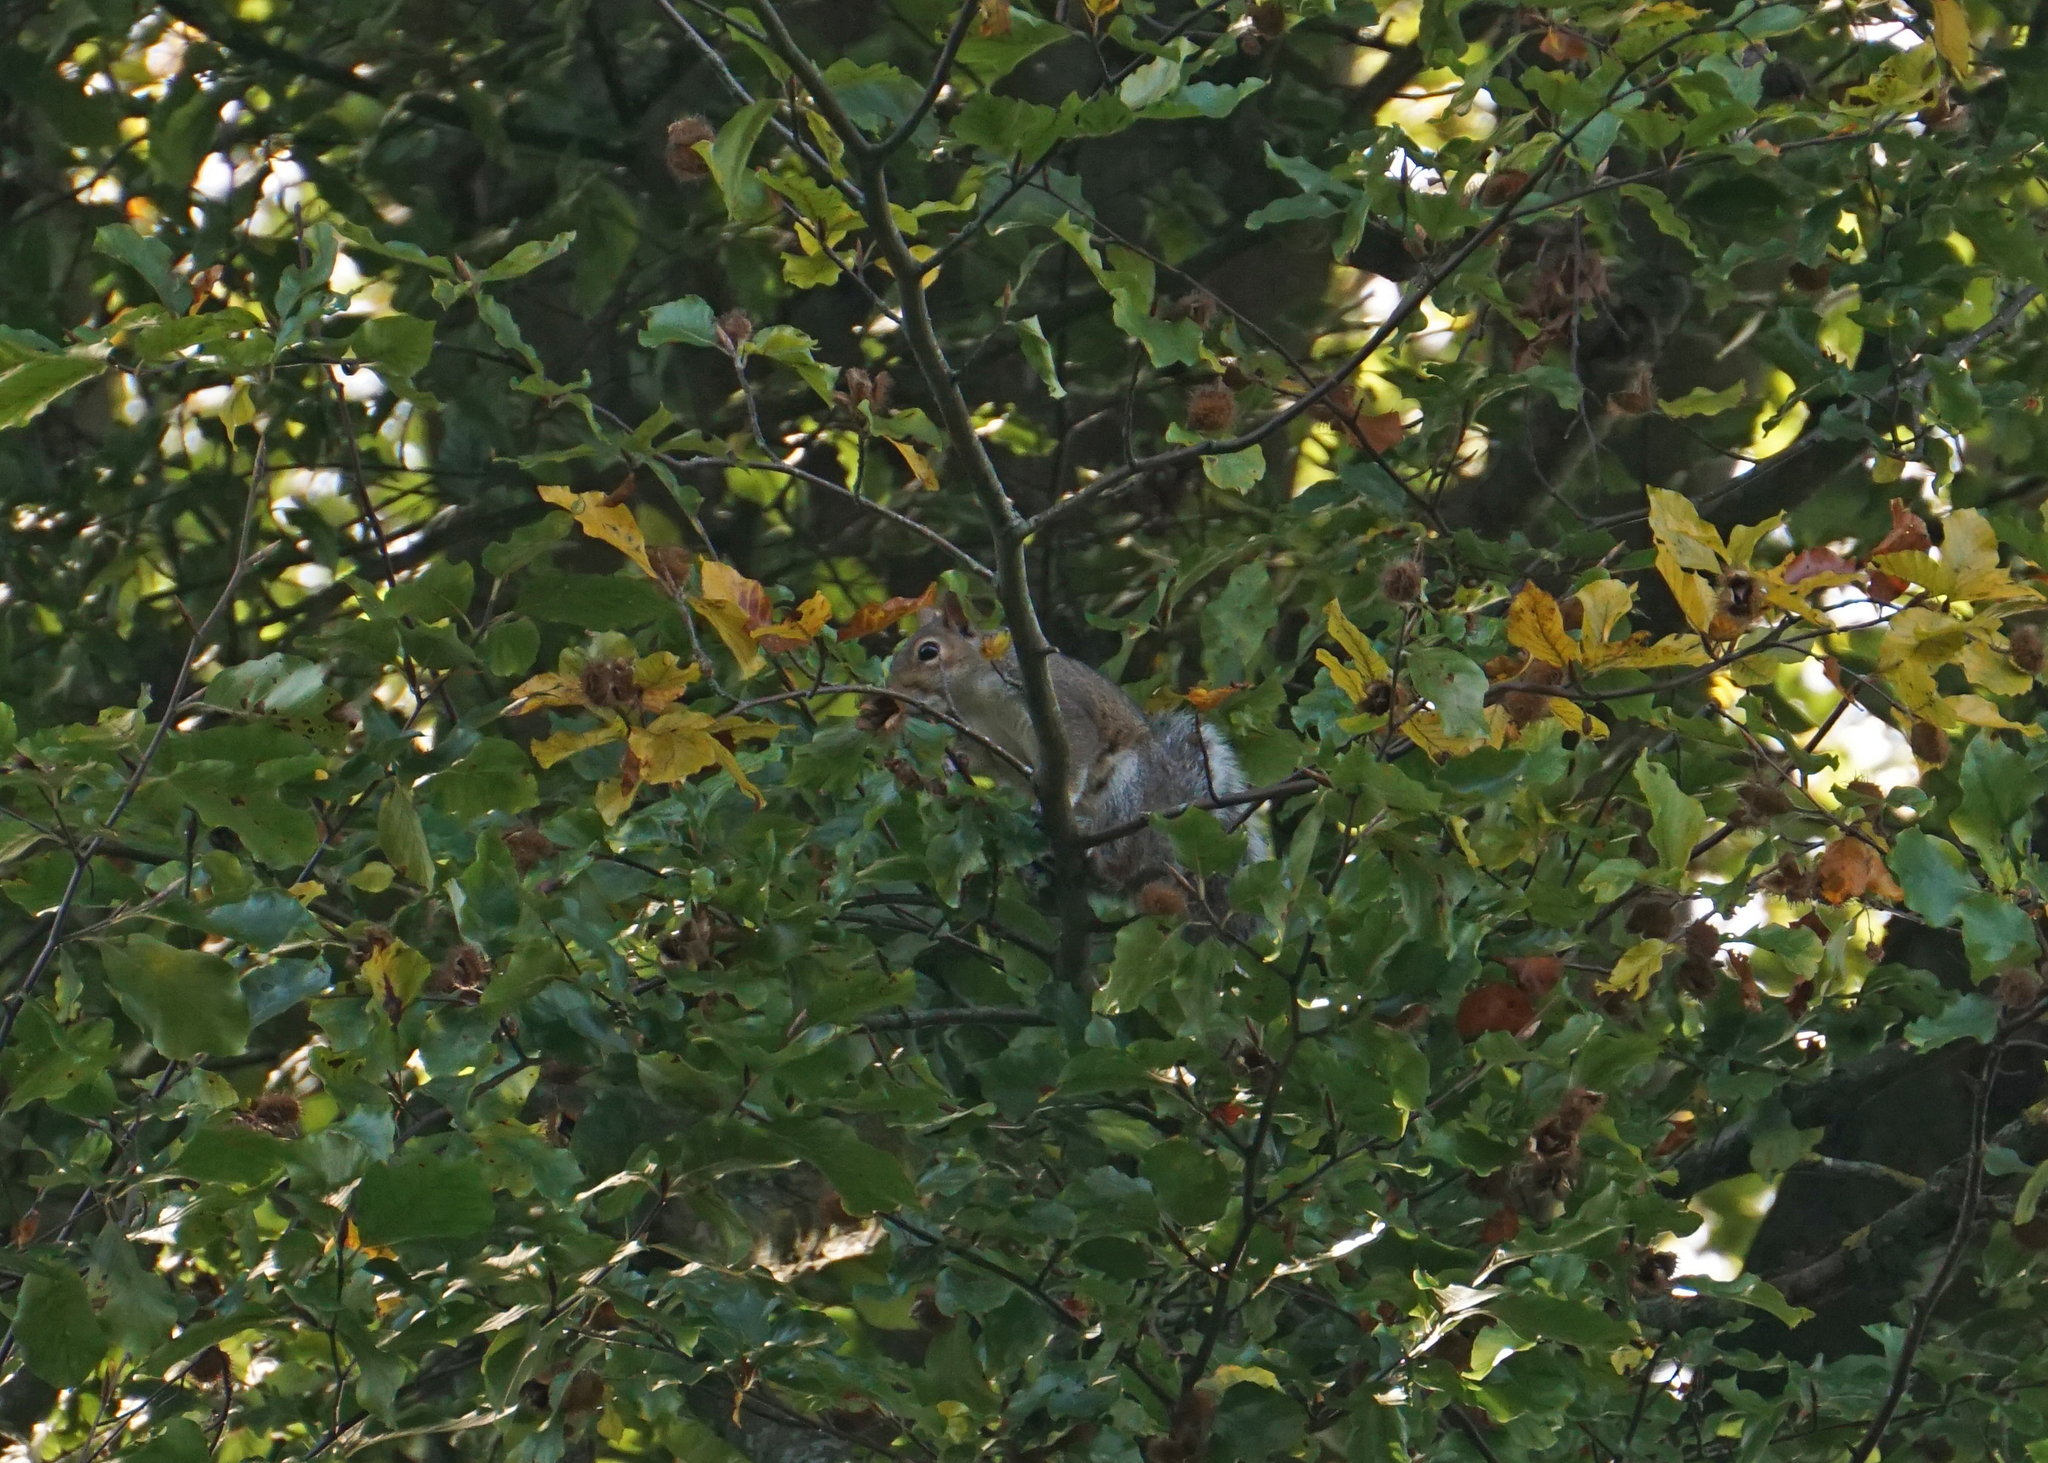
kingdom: Animalia
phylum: Chordata
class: Mammalia
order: Rodentia
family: Sciuridae
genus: Sciurus
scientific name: Sciurus carolinensis
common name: Eastern gray squirrel
